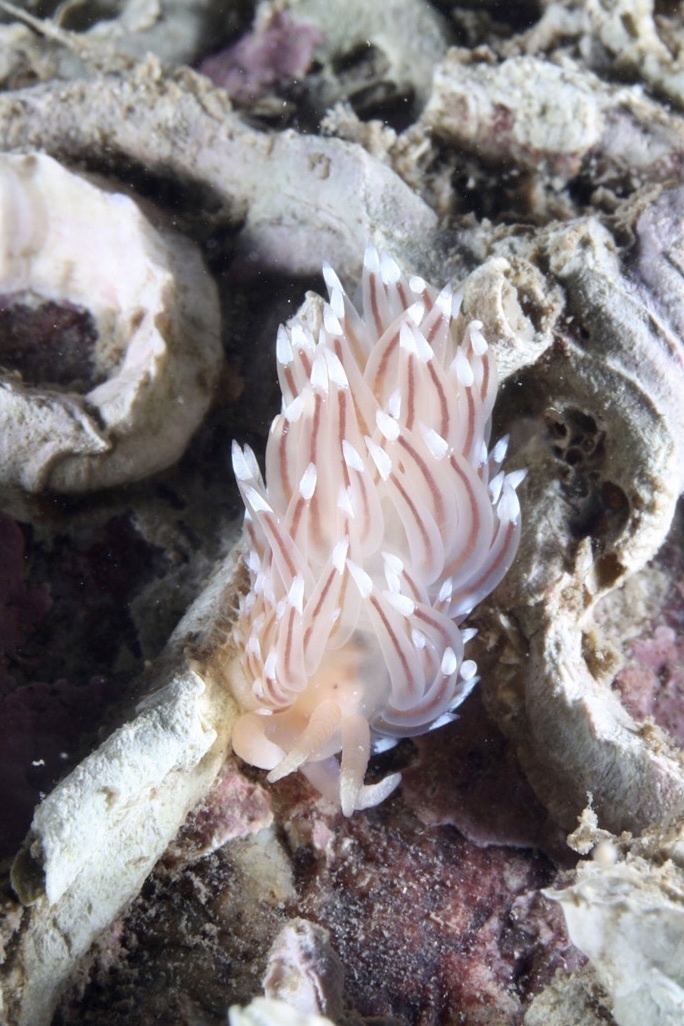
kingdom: Animalia
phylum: Mollusca
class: Gastropoda
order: Nudibranchia
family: Facelinidae
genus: Facelina
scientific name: Facelina bostoniensis
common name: Boston facelina
